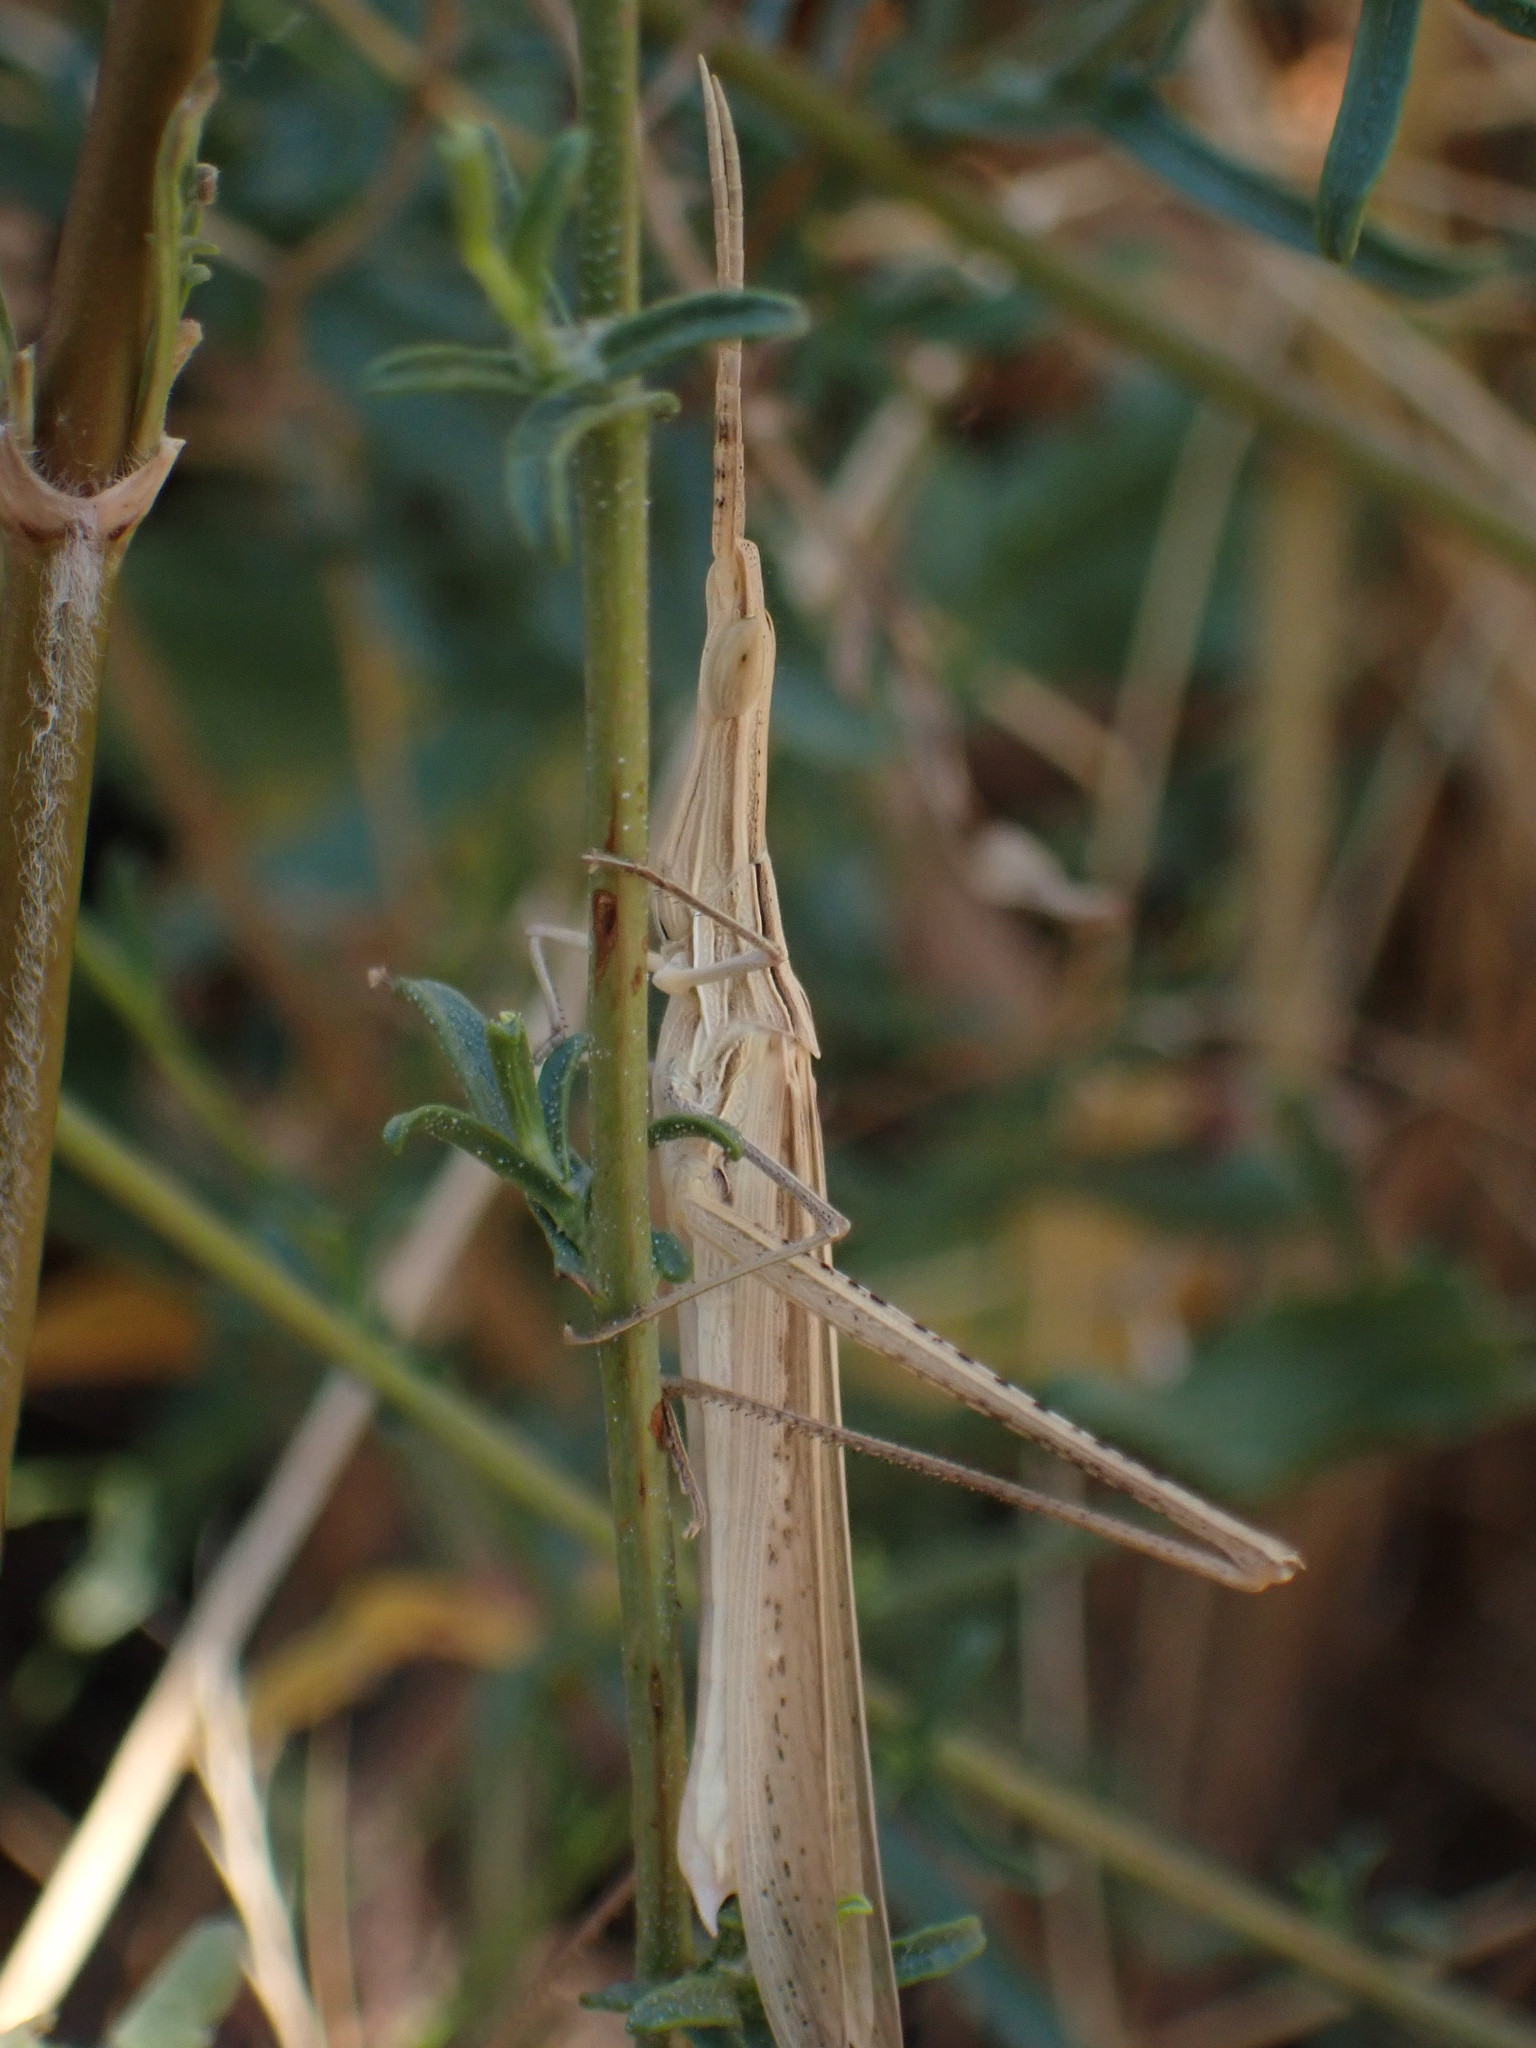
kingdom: Animalia
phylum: Arthropoda
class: Insecta
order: Orthoptera
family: Acrididae
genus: Acrida
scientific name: Acrida ungarica
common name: Common cone-headed grasshopper
